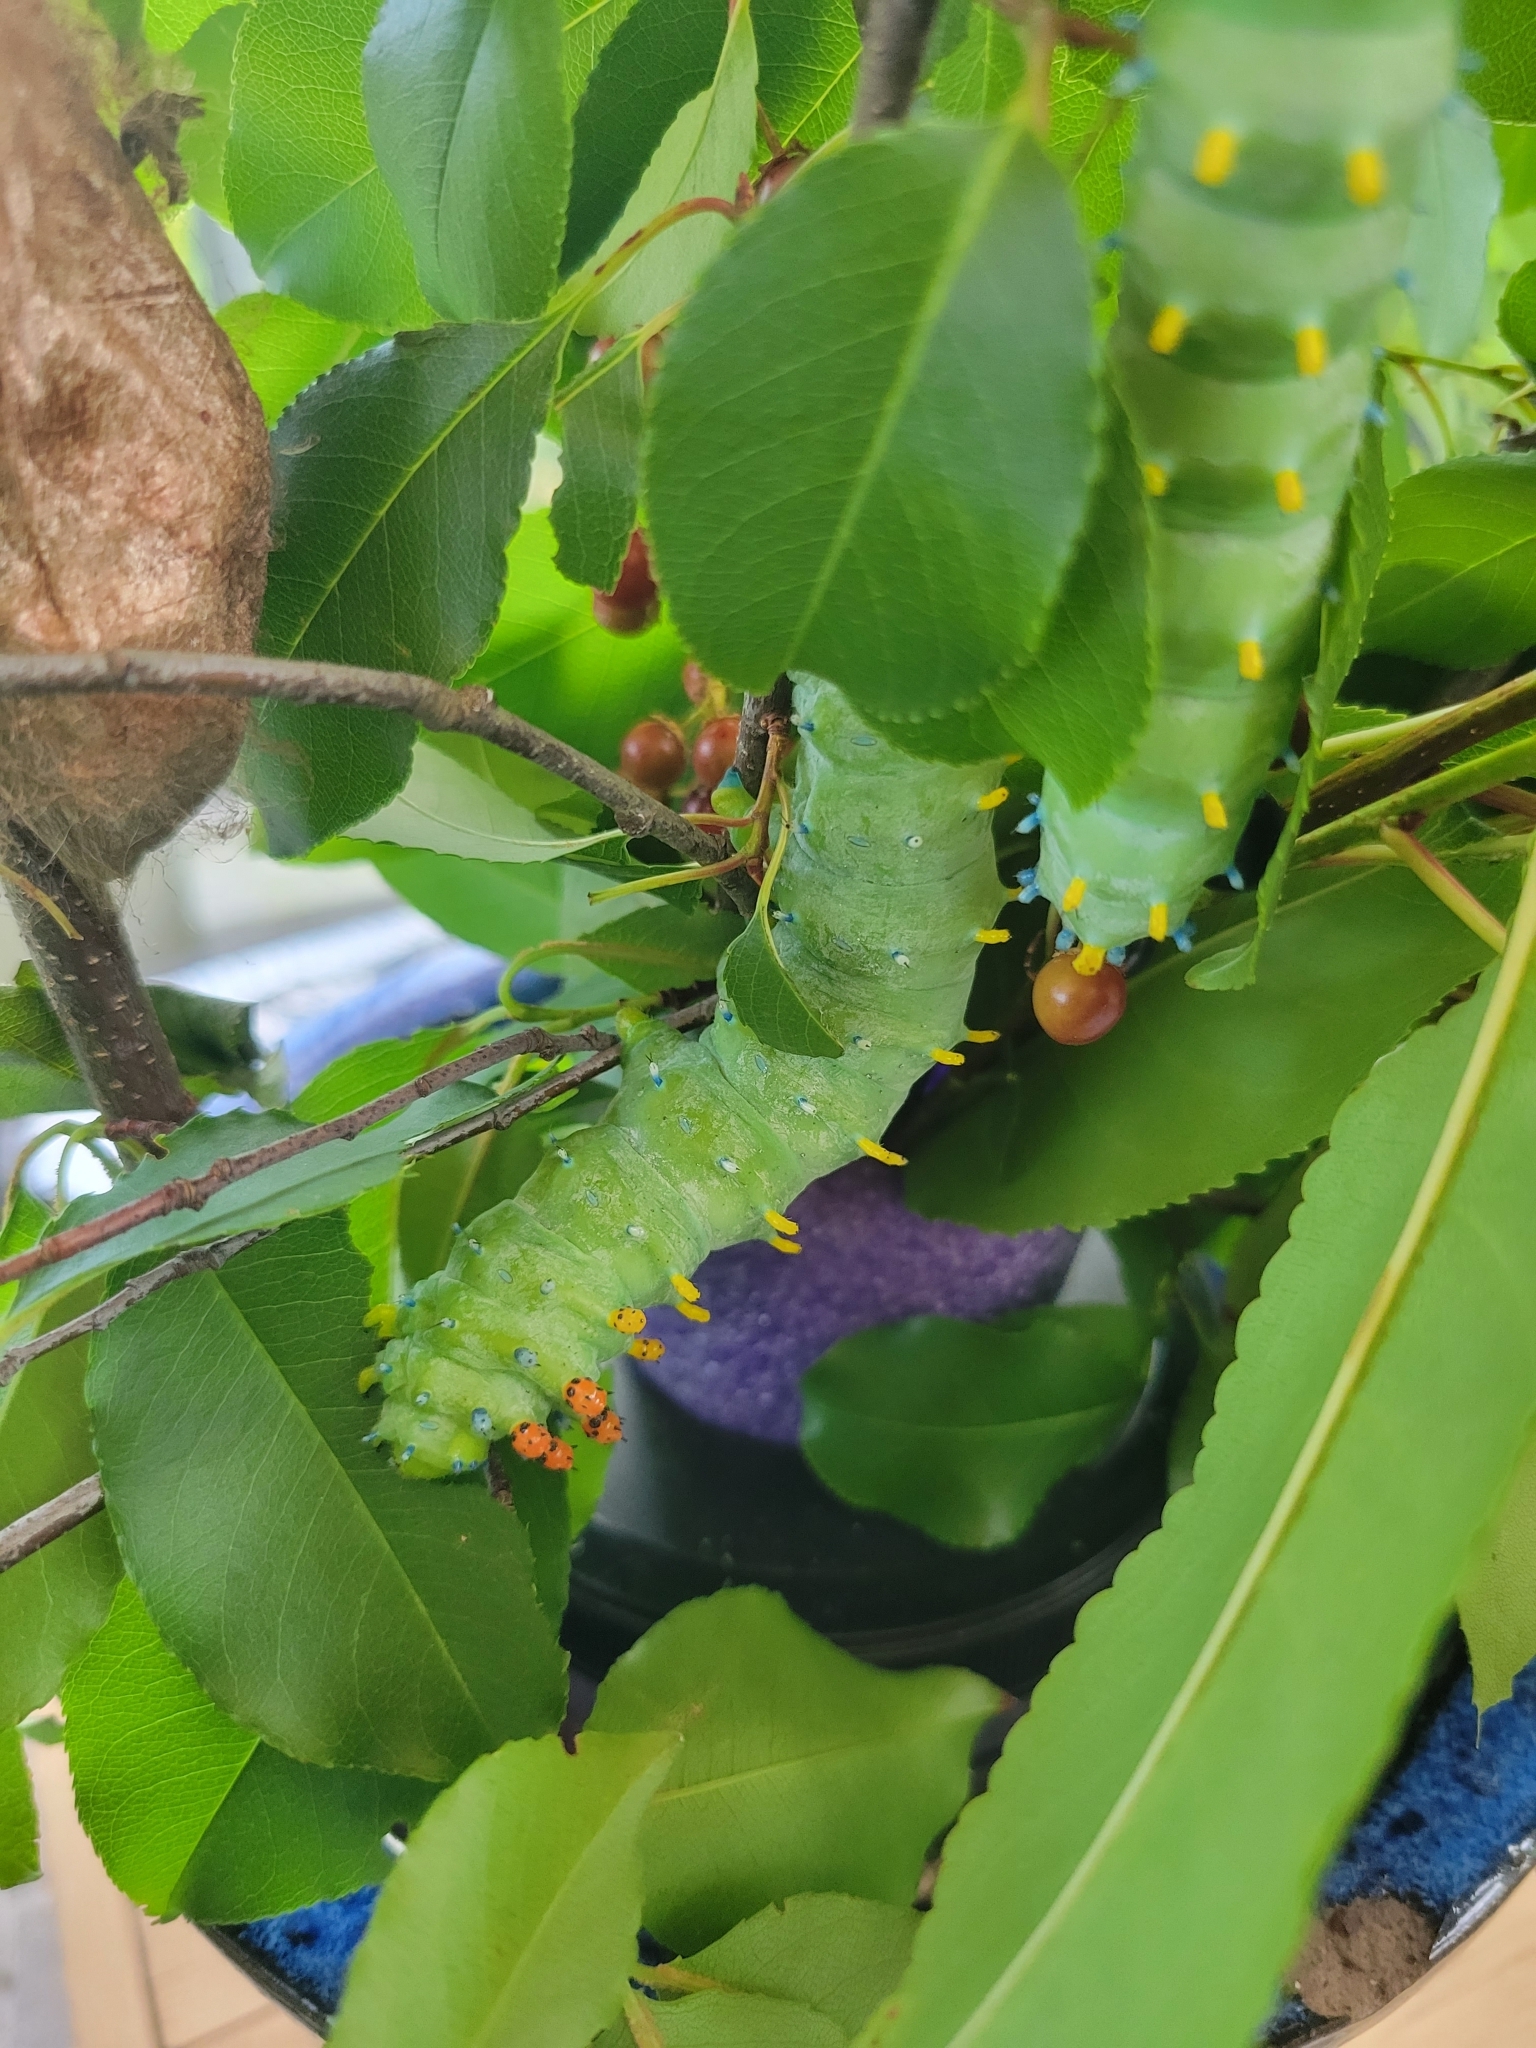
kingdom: Animalia
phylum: Arthropoda
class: Insecta
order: Lepidoptera
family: Saturniidae
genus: Hyalophora
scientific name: Hyalophora cecropia
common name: Cecropia silkmoth
